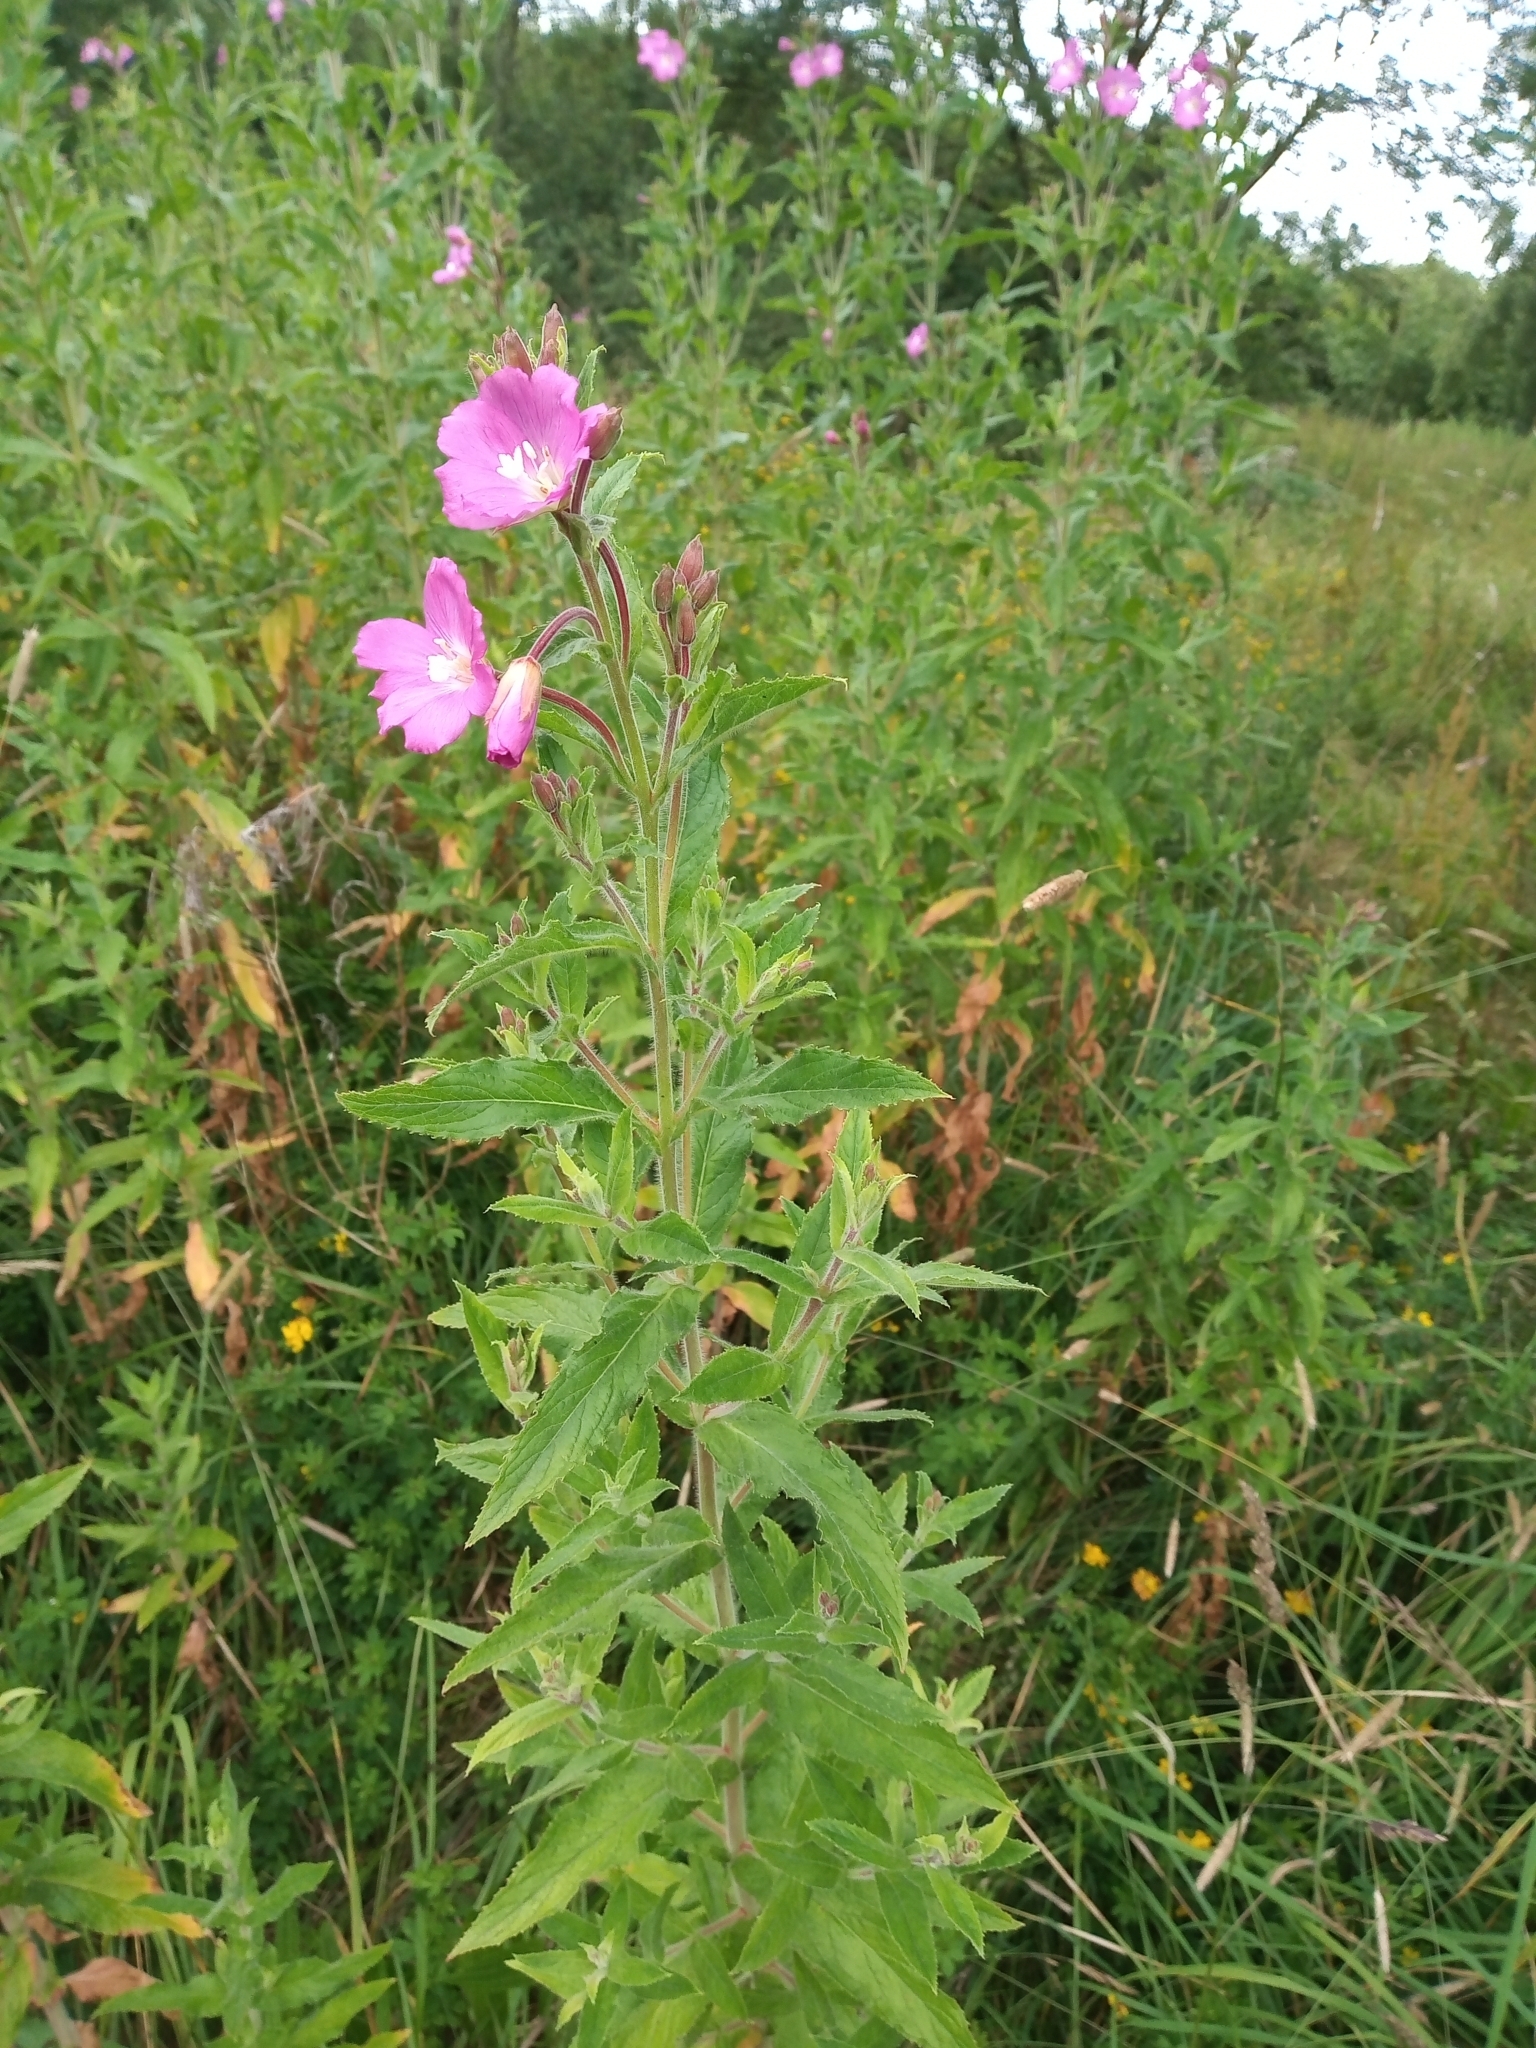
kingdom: Plantae
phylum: Tracheophyta
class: Magnoliopsida
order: Myrtales
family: Onagraceae
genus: Epilobium
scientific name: Epilobium hirsutum
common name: Great willowherb
